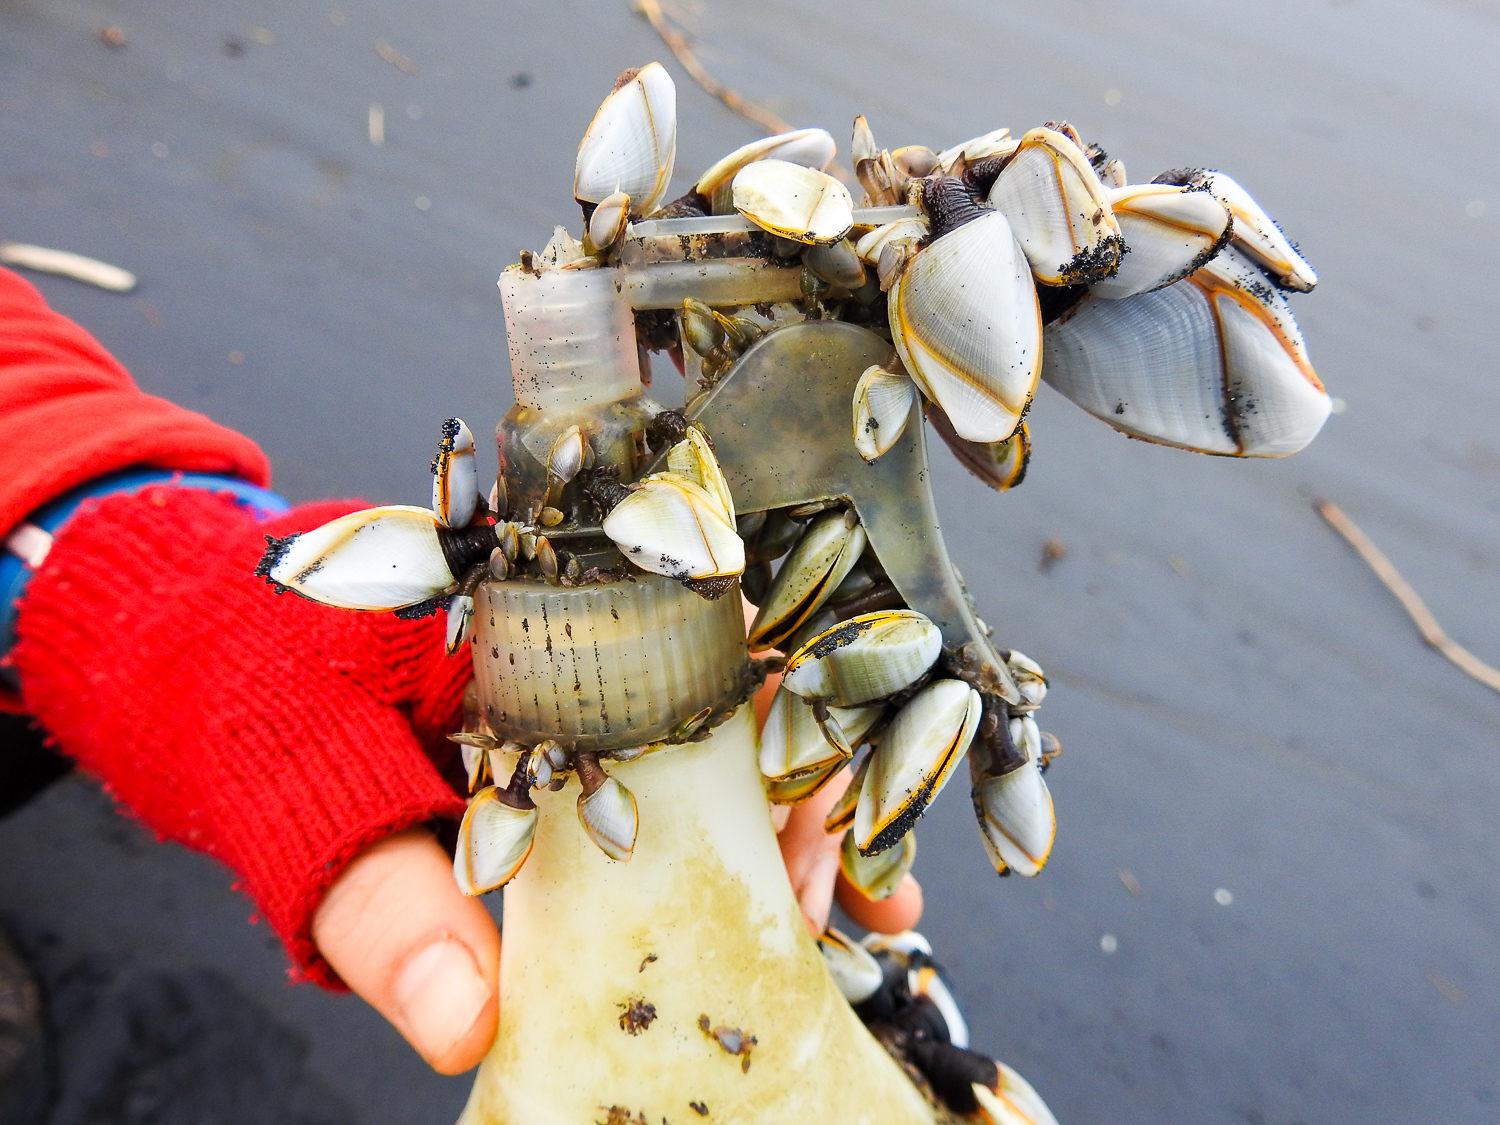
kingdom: Animalia
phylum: Arthropoda
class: Maxillopoda
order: Pedunculata
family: Lepadidae
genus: Lepas
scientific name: Lepas anatifera
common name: Common goose barnacle
